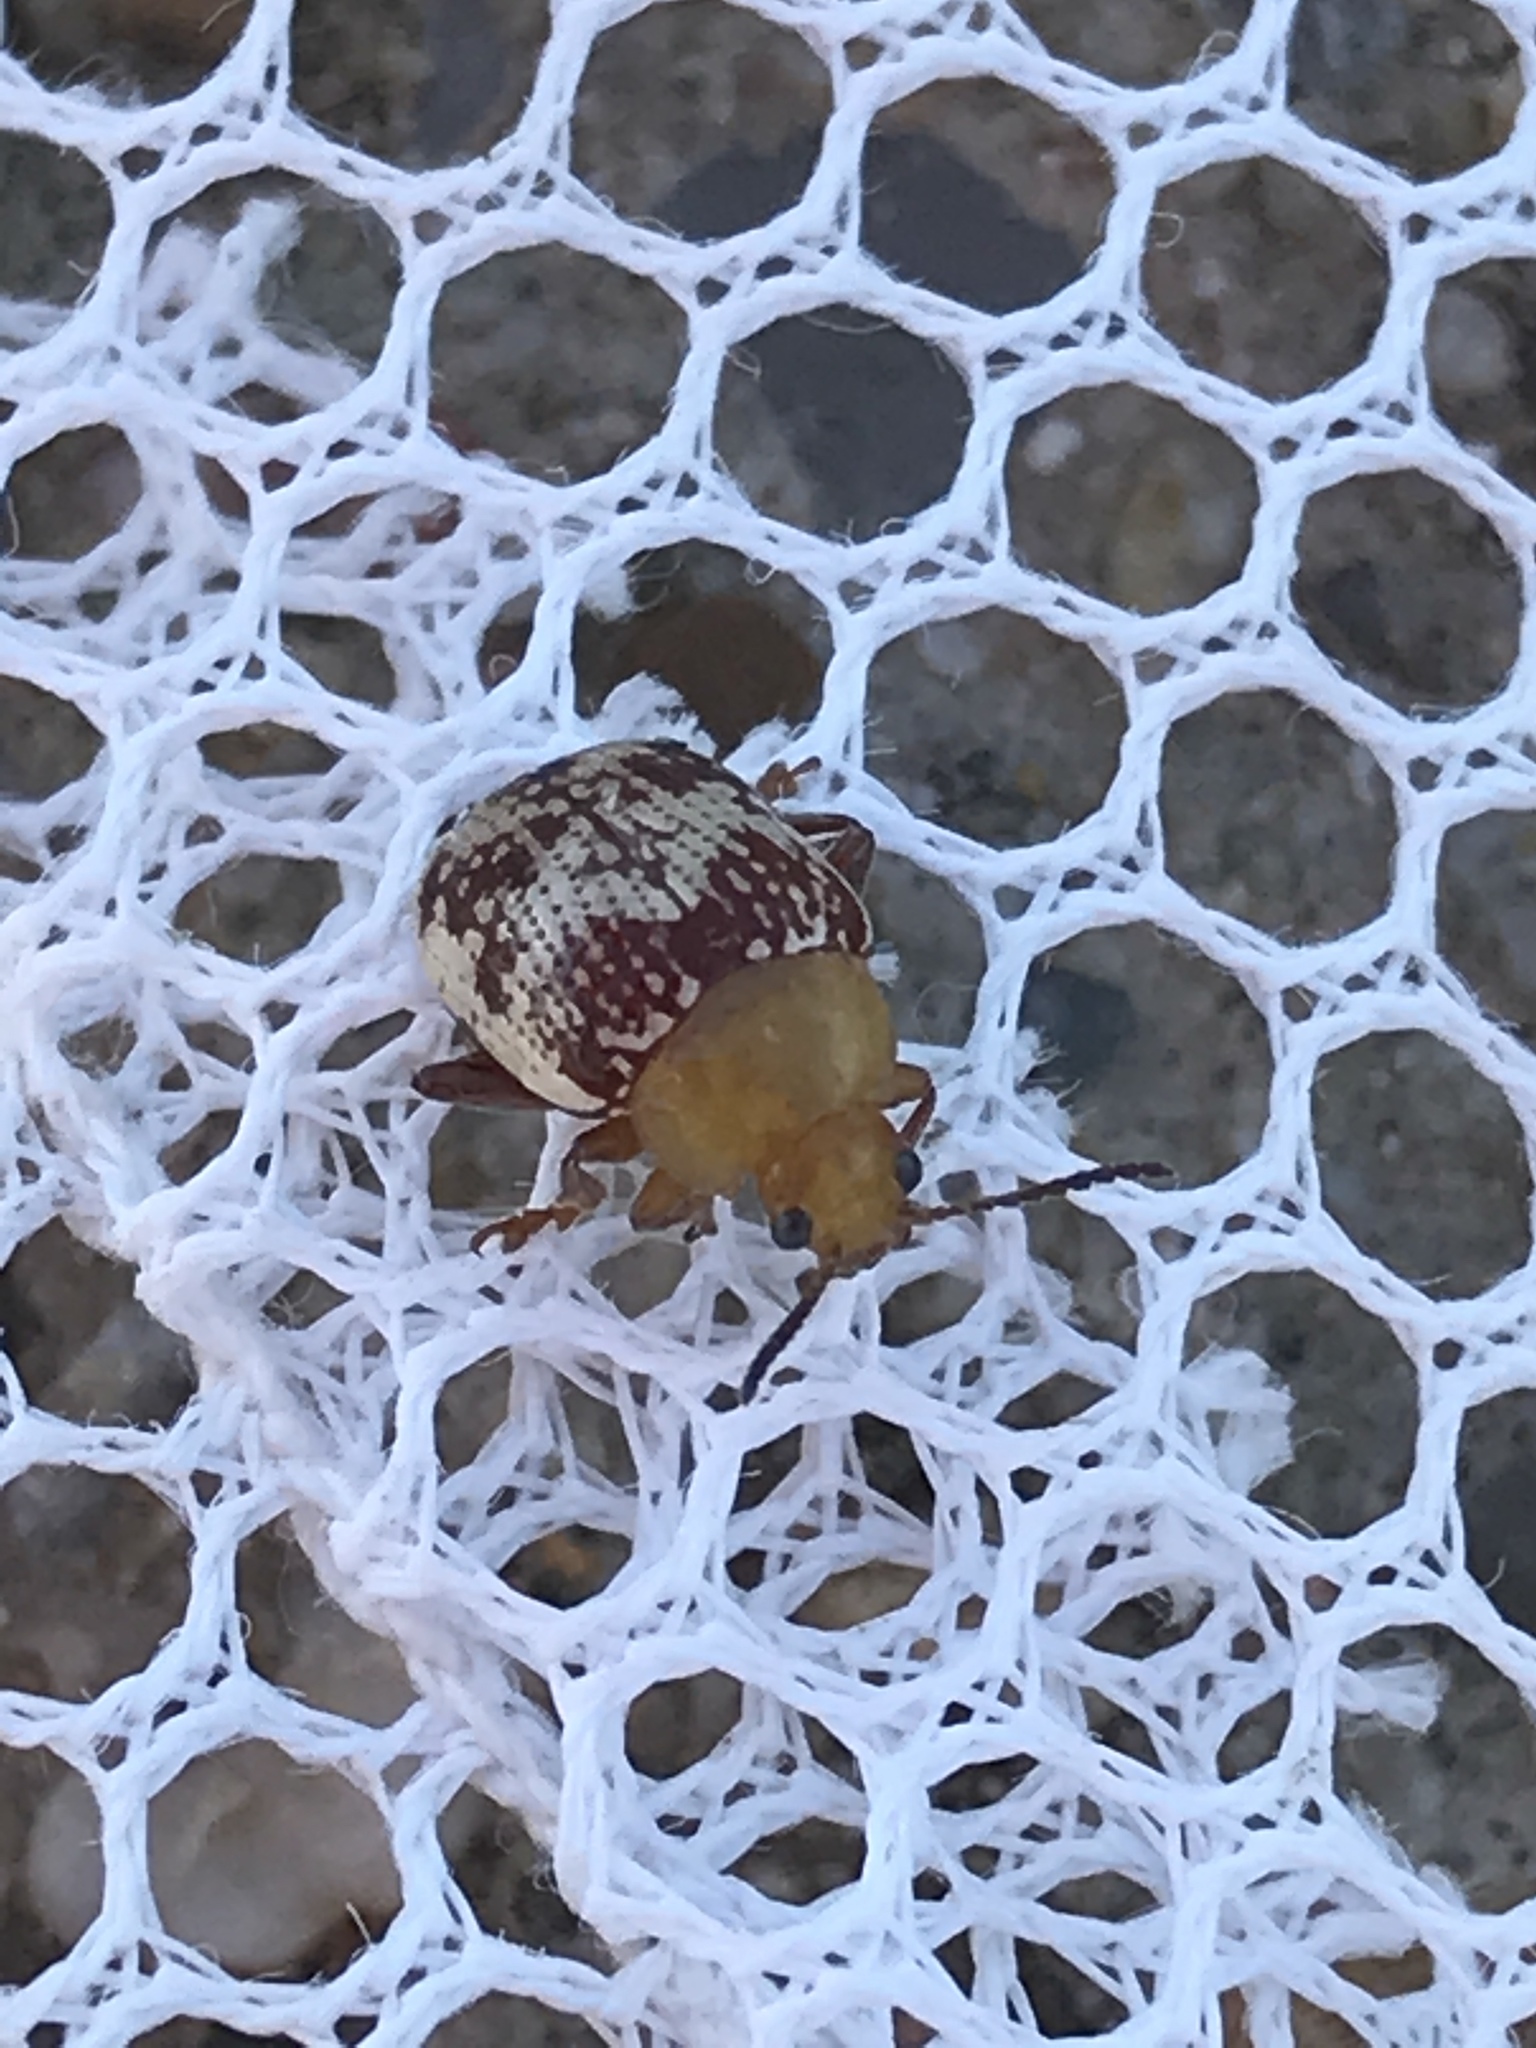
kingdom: Animalia
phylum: Arthropoda
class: Insecta
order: Coleoptera
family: Chrysomelidae
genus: Blepharida
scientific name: Blepharida rhois
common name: Sumac flea beetle
